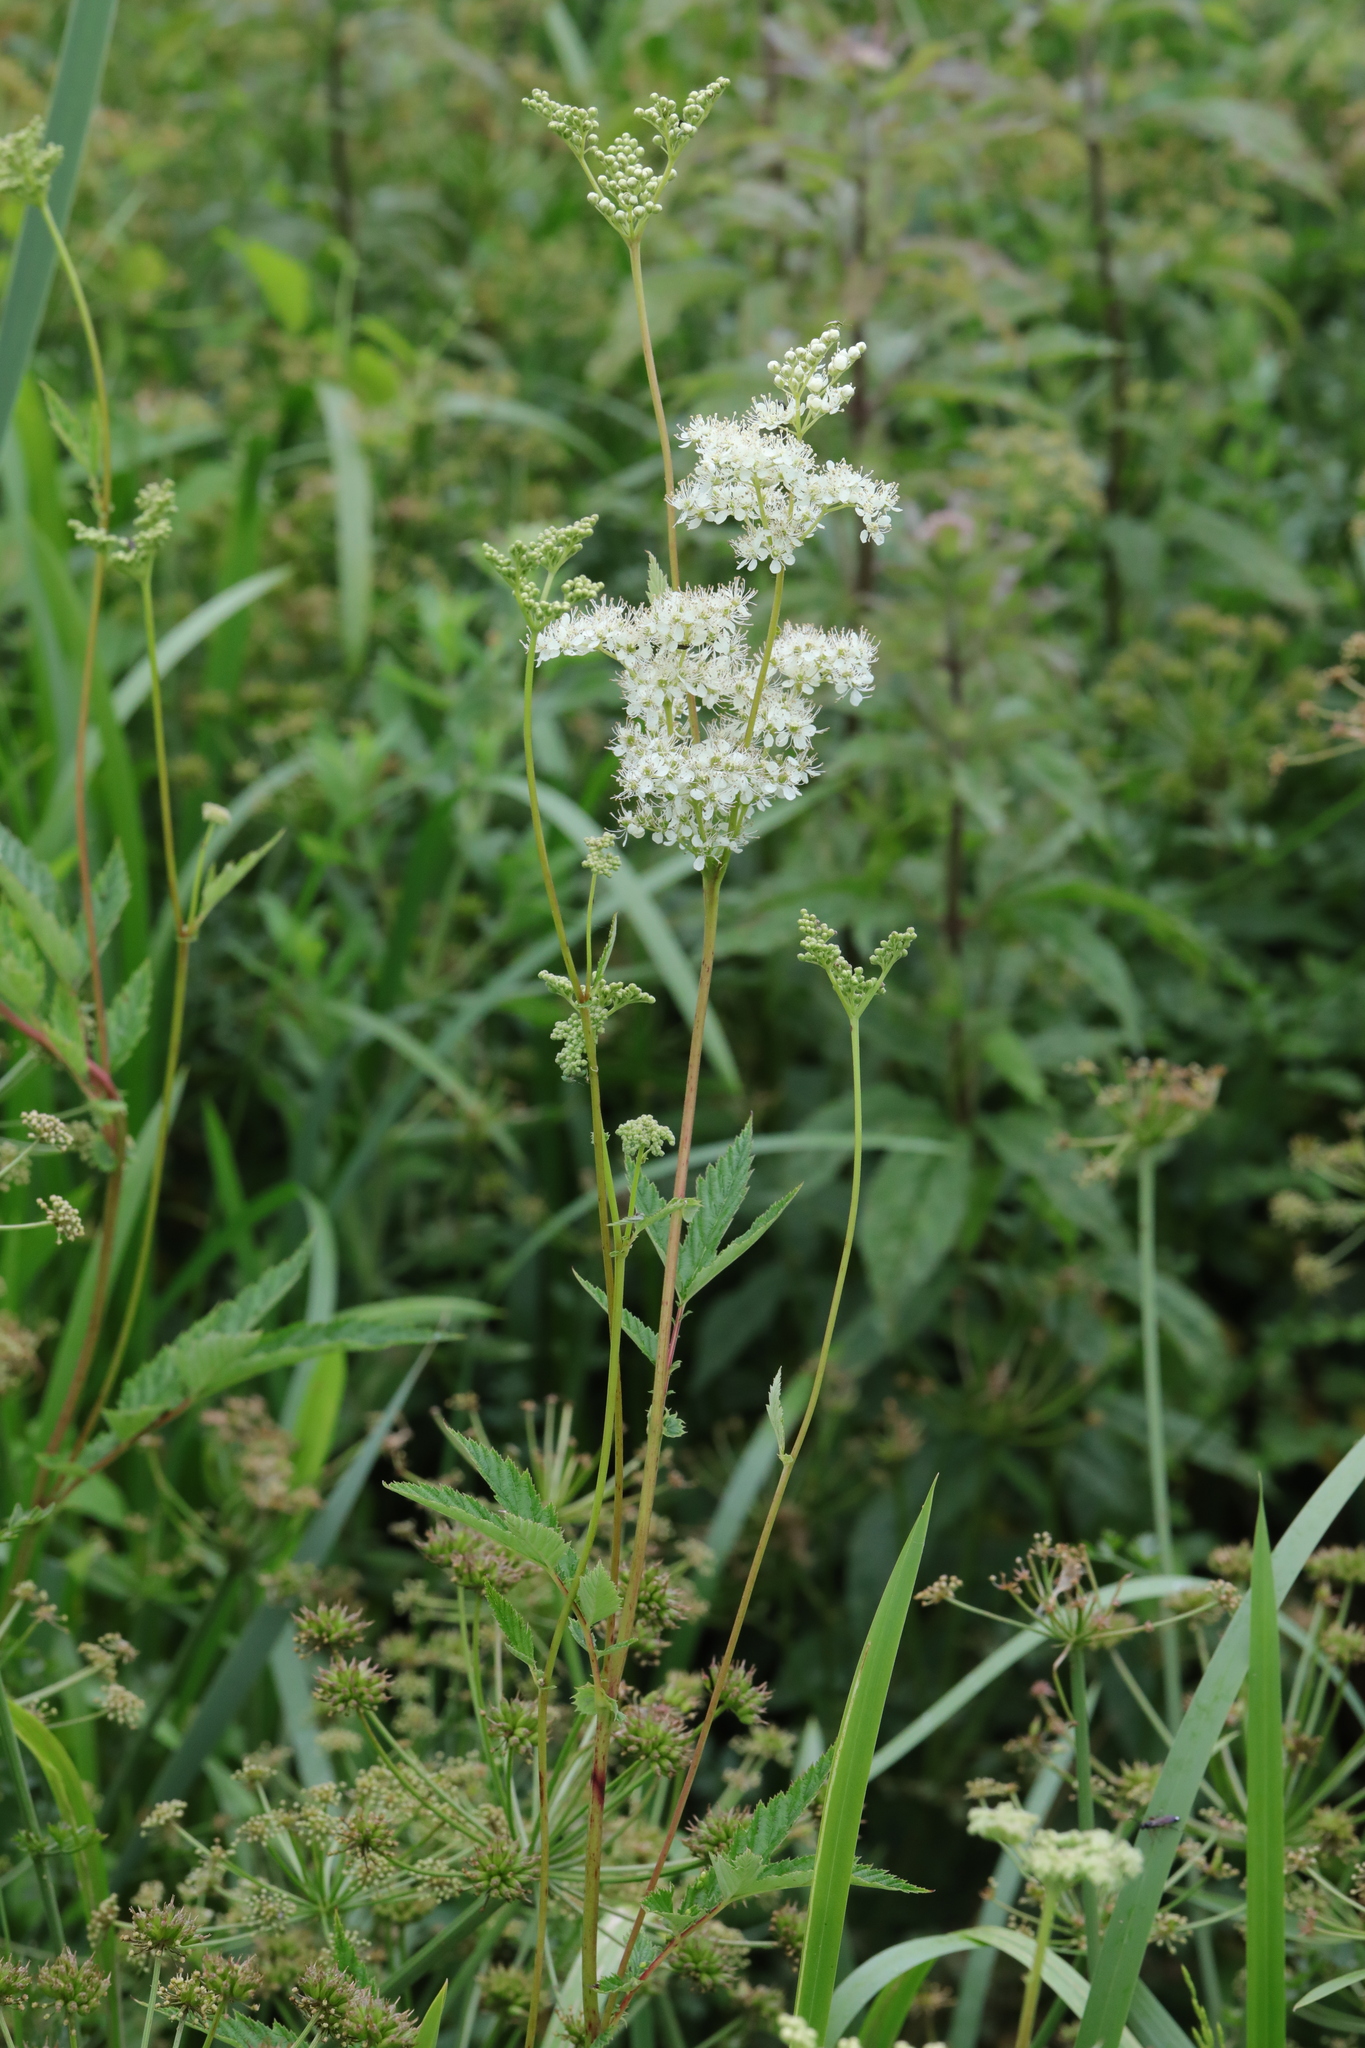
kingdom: Plantae
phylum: Tracheophyta
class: Magnoliopsida
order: Rosales
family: Rosaceae
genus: Filipendula
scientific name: Filipendula ulmaria
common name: Meadowsweet
